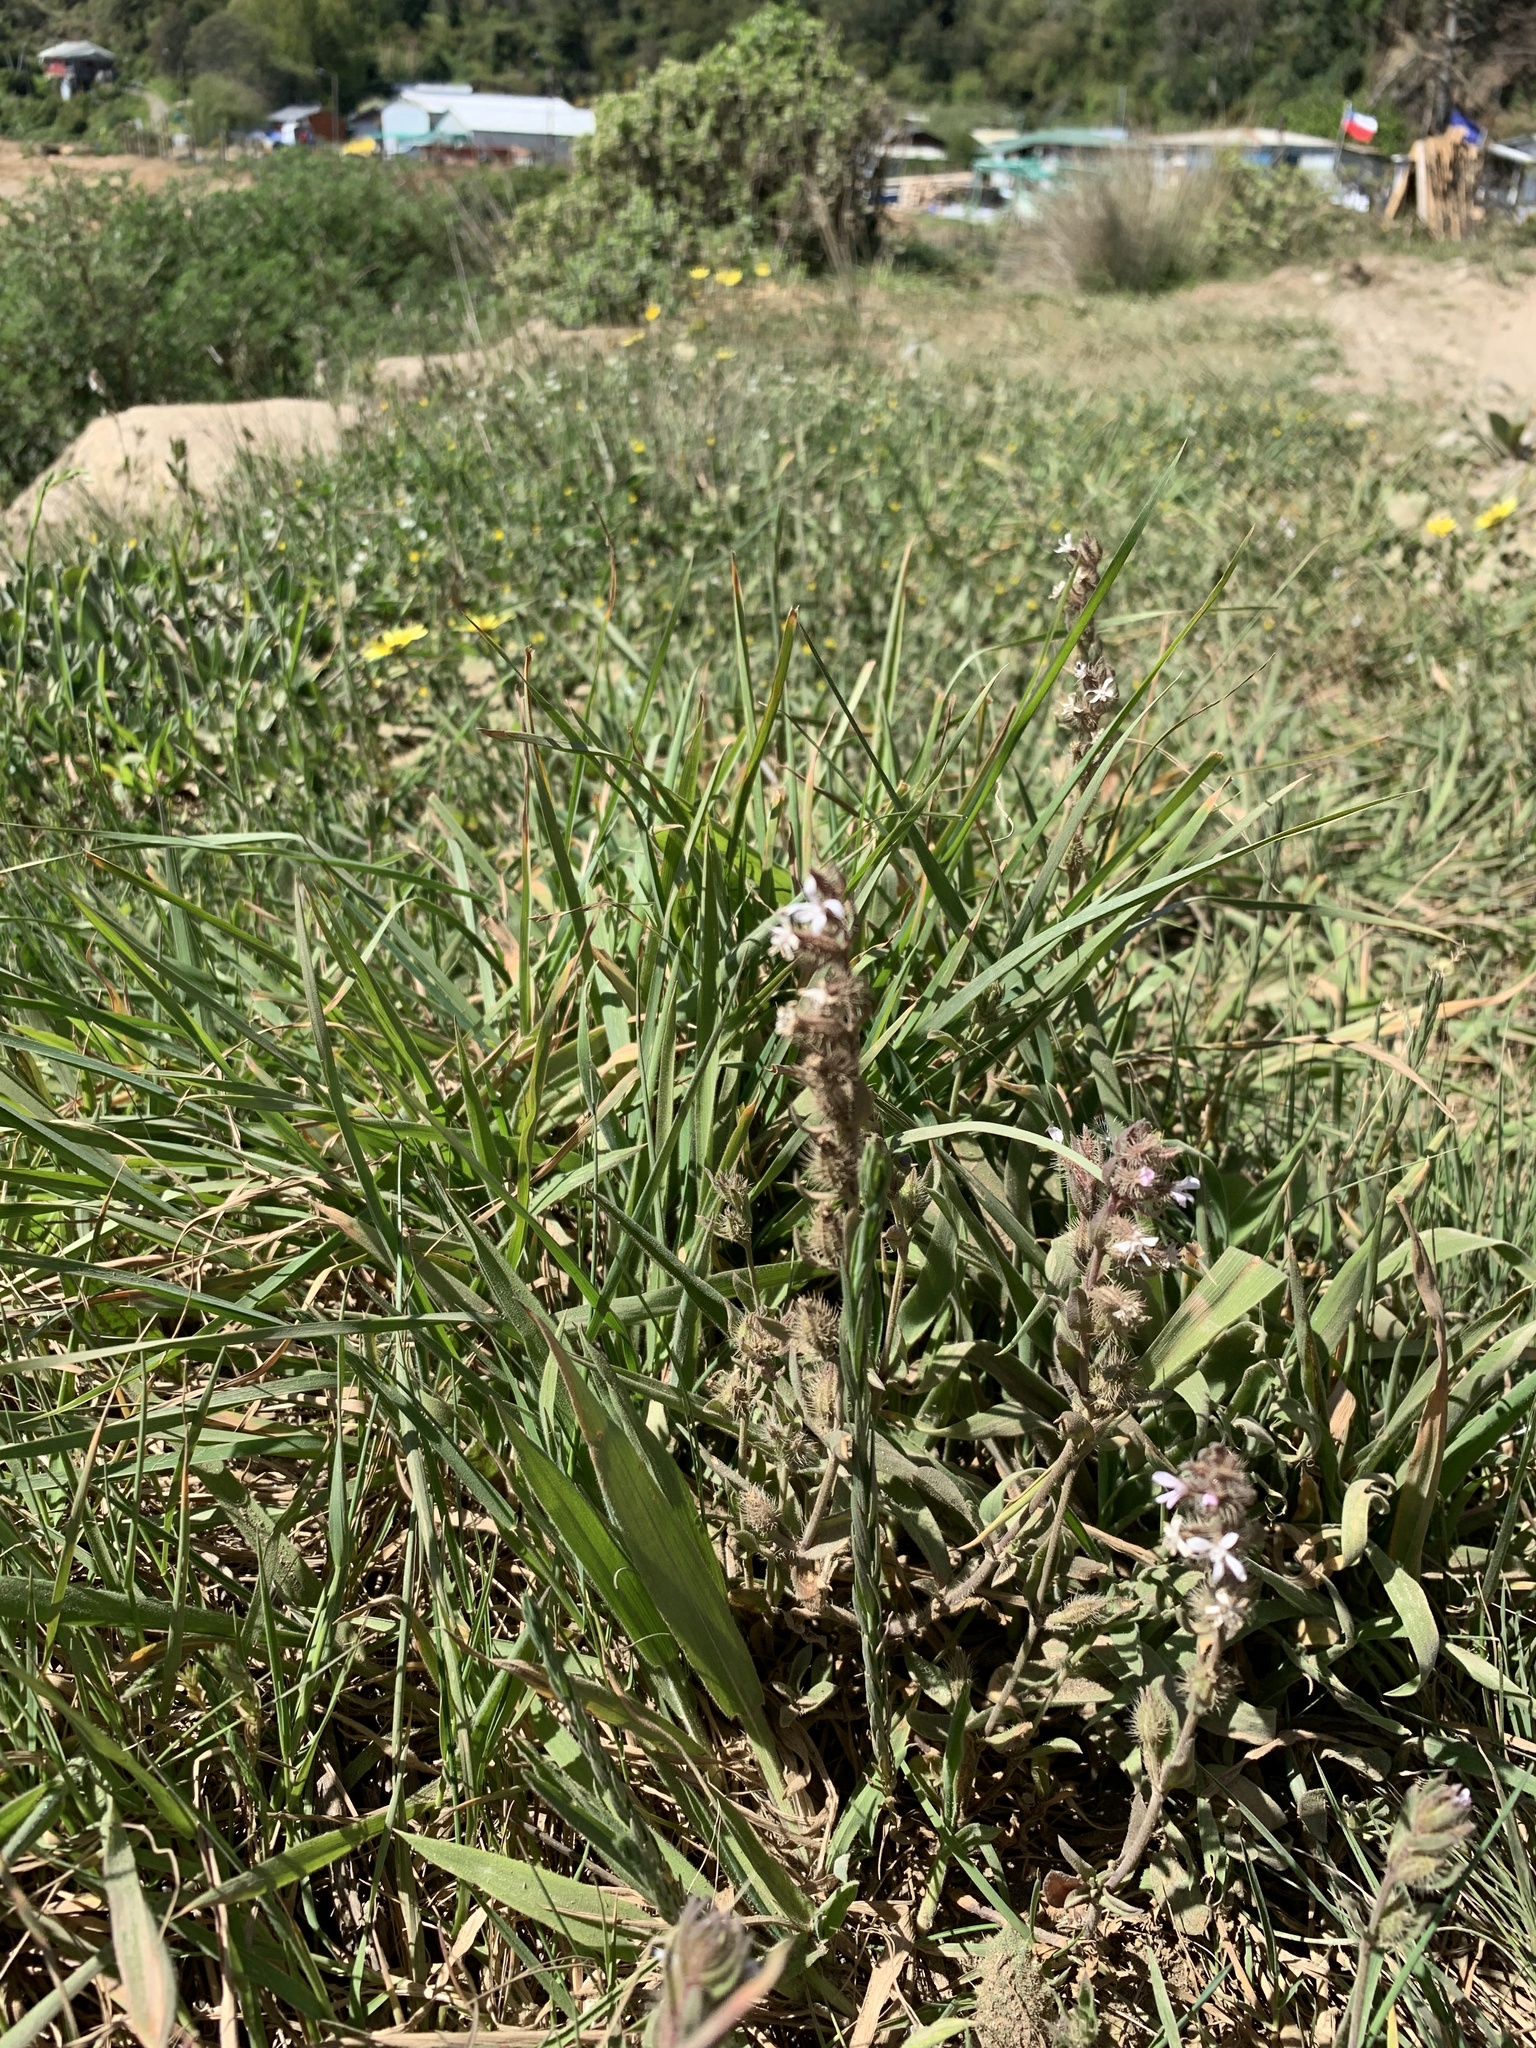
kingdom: Plantae
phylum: Tracheophyta
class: Magnoliopsida
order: Caryophyllales
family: Caryophyllaceae
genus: Silene
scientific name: Silene gallica
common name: Small-flowered catchfly
